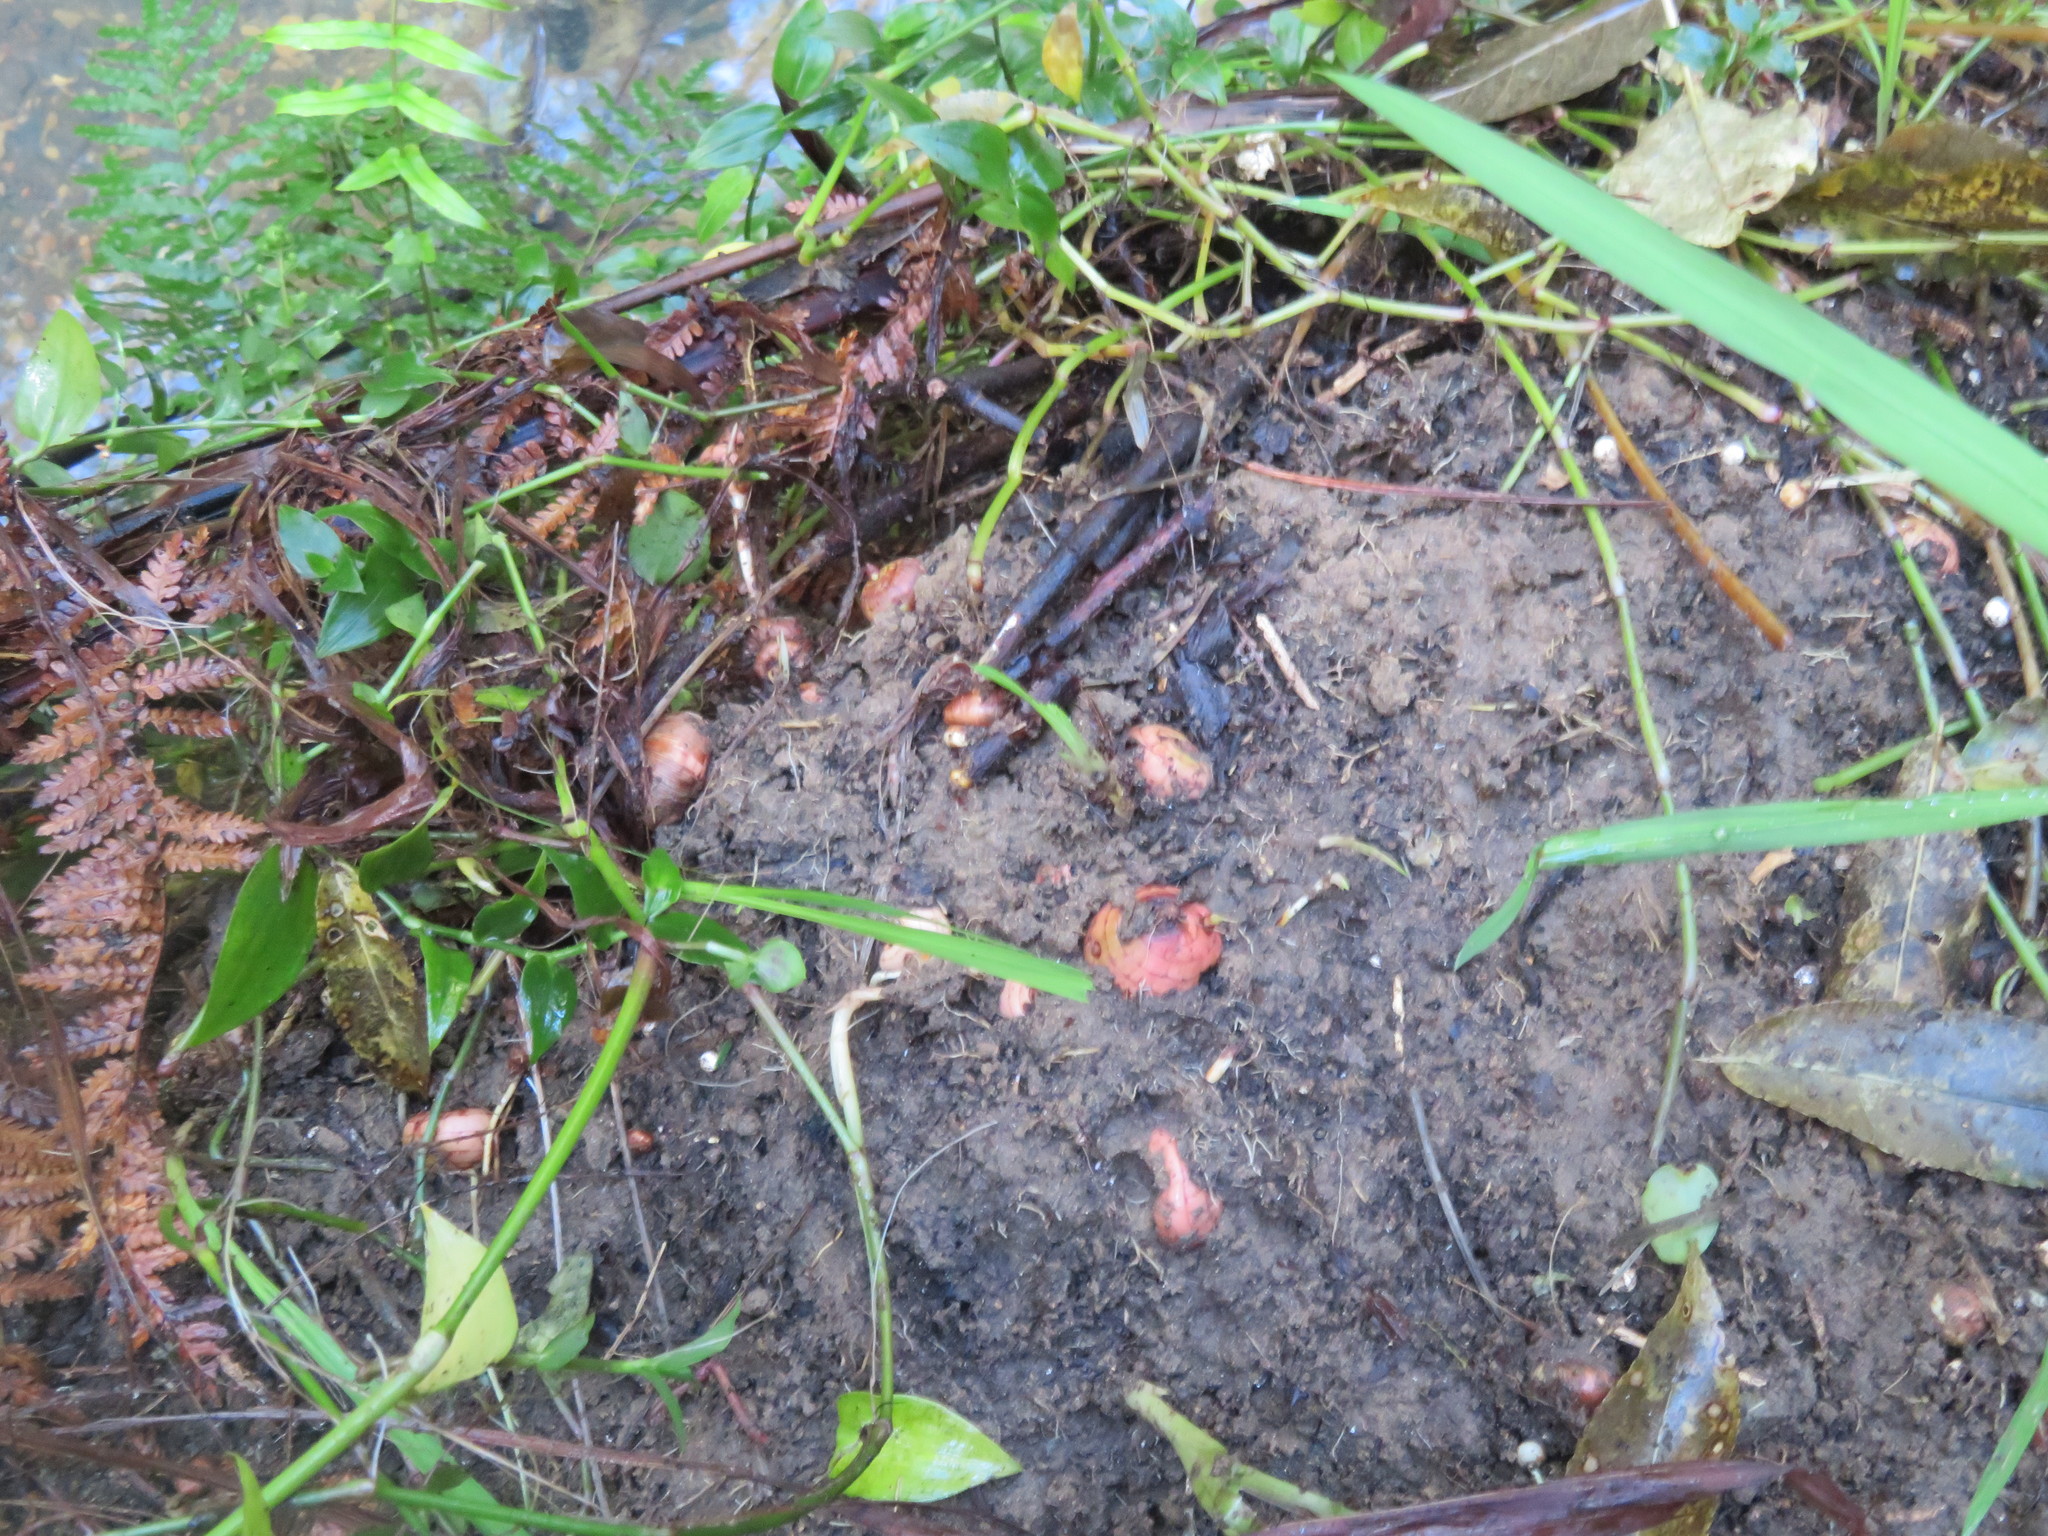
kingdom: Plantae
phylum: Tracheophyta
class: Liliopsida
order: Asparagales
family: Iridaceae
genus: Crocosmia
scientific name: Crocosmia crocosmiiflora
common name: Montbretia
